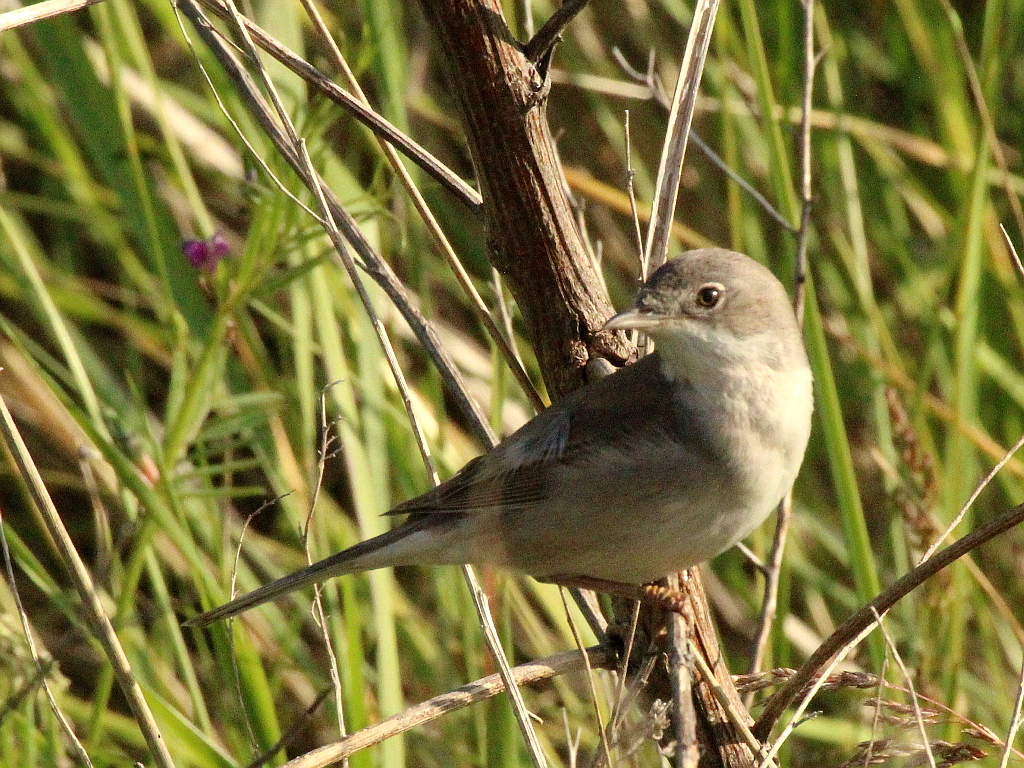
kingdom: Animalia
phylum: Chordata
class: Aves
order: Passeriformes
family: Sylviidae
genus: Sylvia
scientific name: Sylvia communis
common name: Common whitethroat
